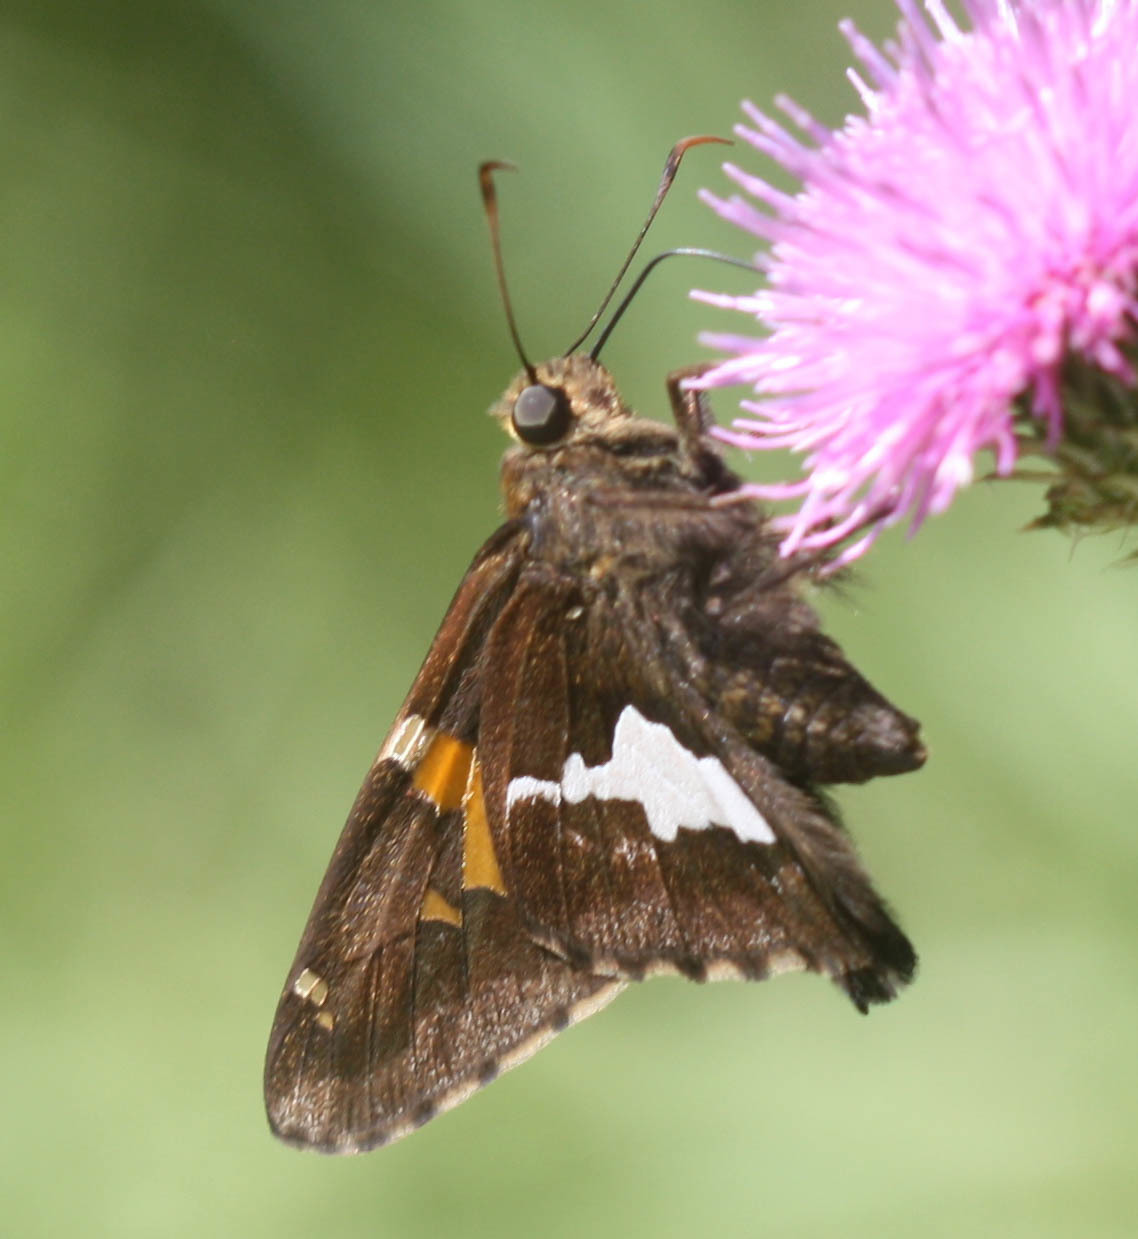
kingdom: Animalia
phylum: Arthropoda
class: Insecta
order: Lepidoptera
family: Hesperiidae
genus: Epargyreus
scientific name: Epargyreus clarus
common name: Silver-spotted skipper
